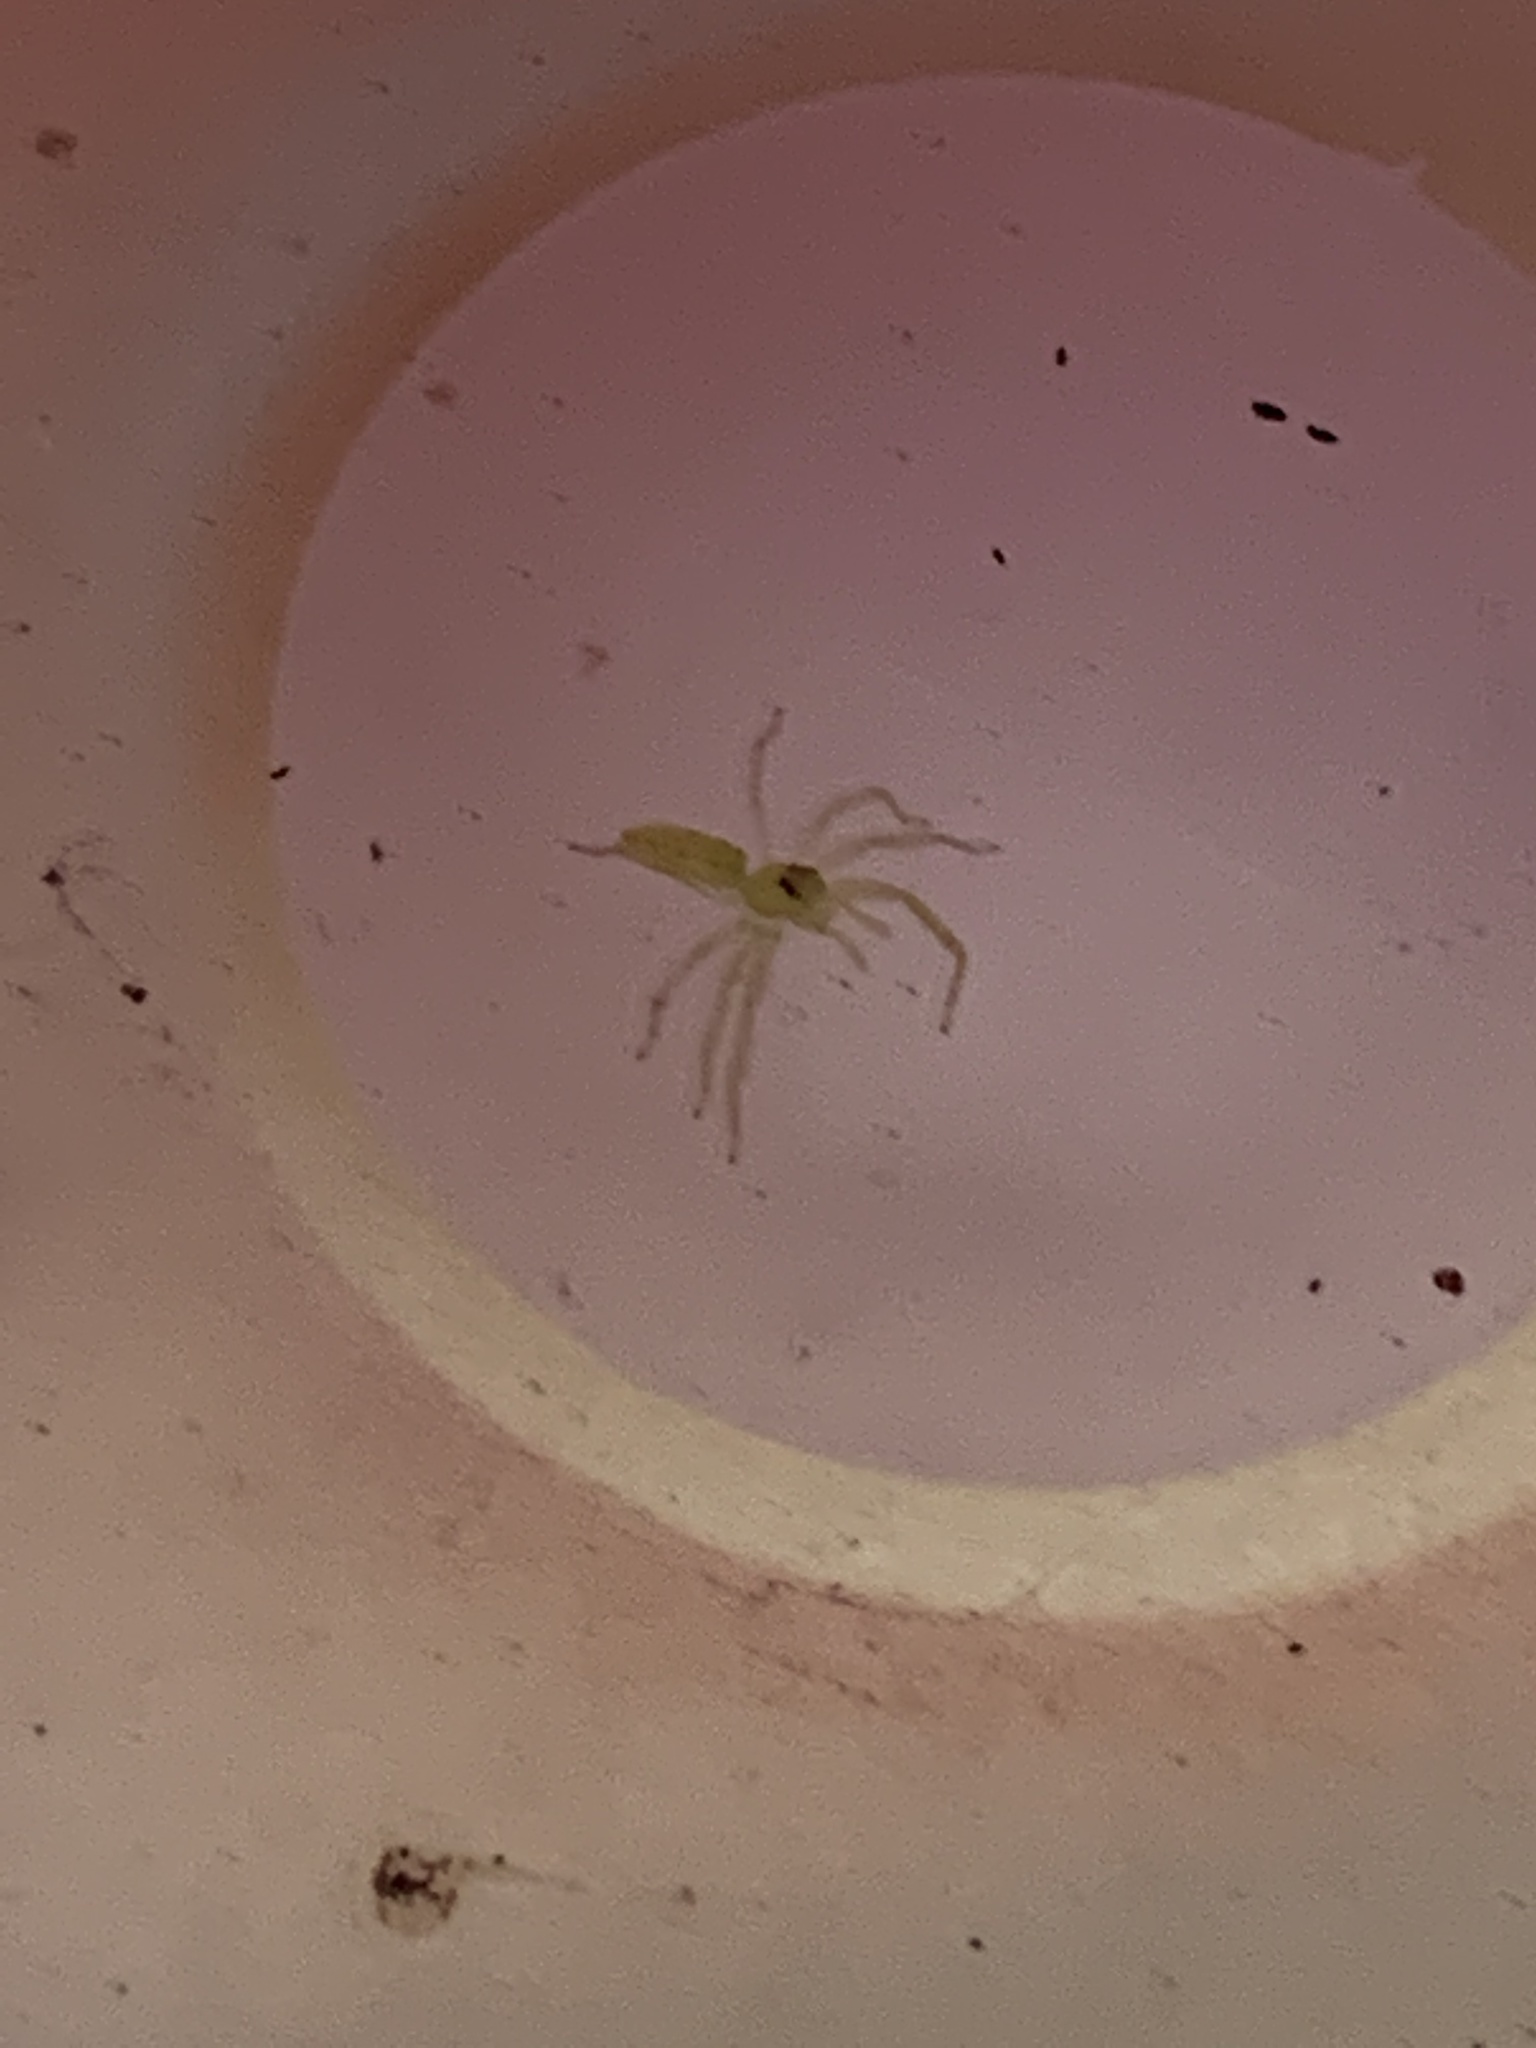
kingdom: Animalia
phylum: Arthropoda
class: Arachnida
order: Araneae
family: Salticidae
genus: Lyssomanes
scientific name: Lyssomanes viridis
